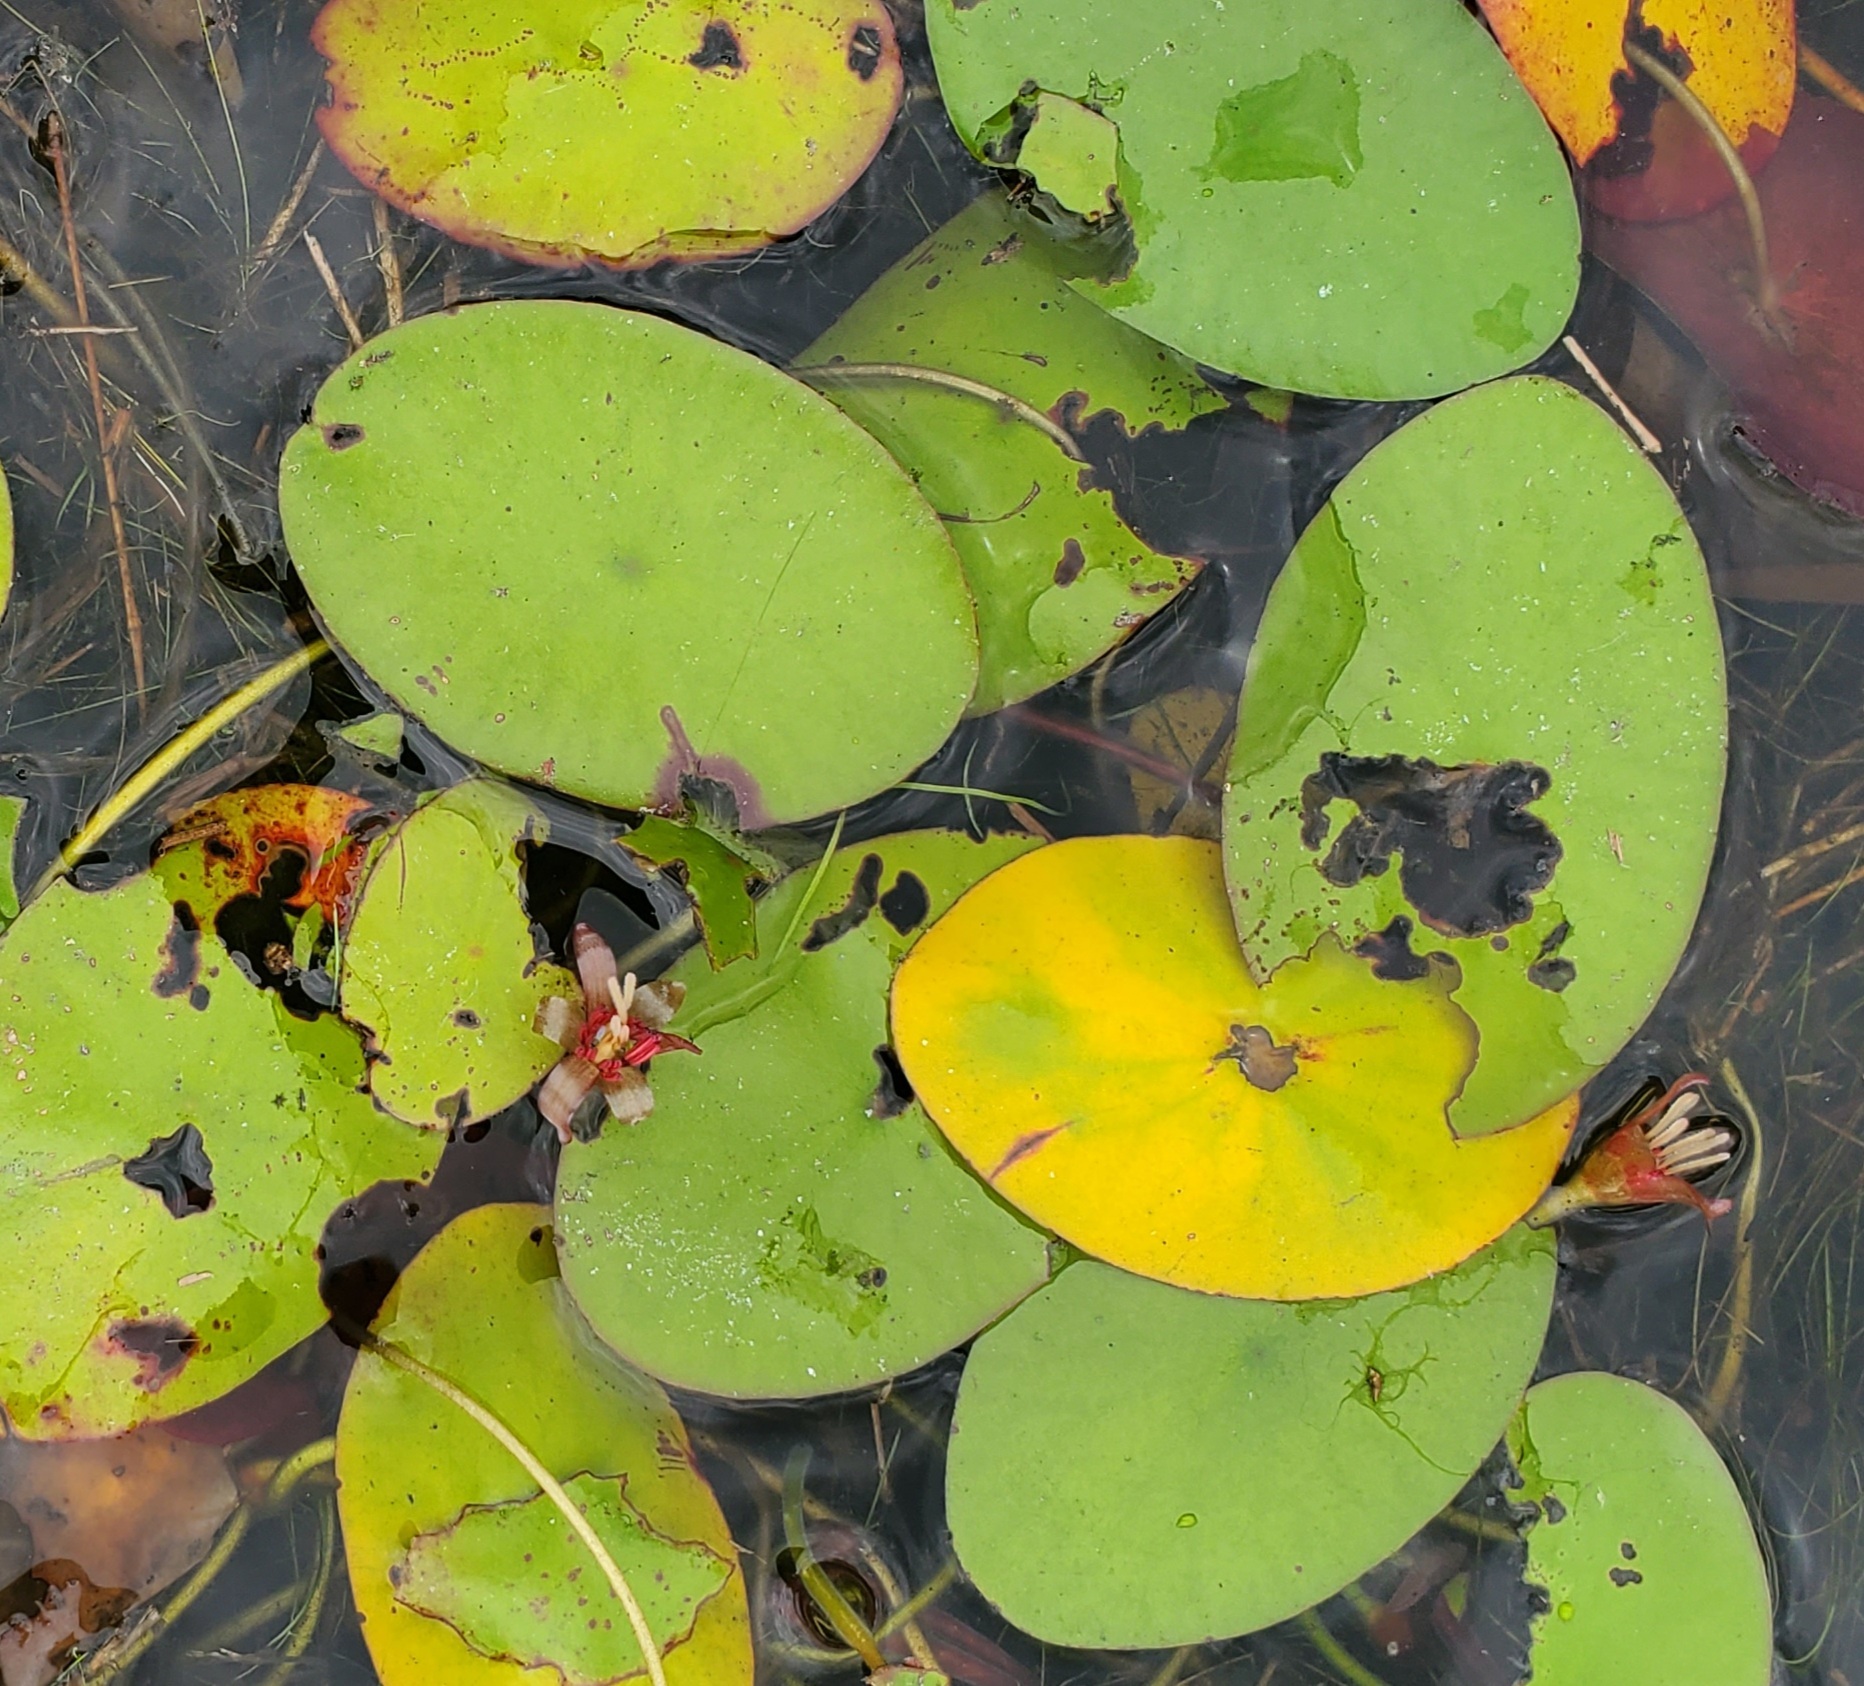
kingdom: Plantae
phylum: Tracheophyta
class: Magnoliopsida
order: Nymphaeales
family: Cabombaceae
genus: Brasenia
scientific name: Brasenia schreberi
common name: Water-shield
